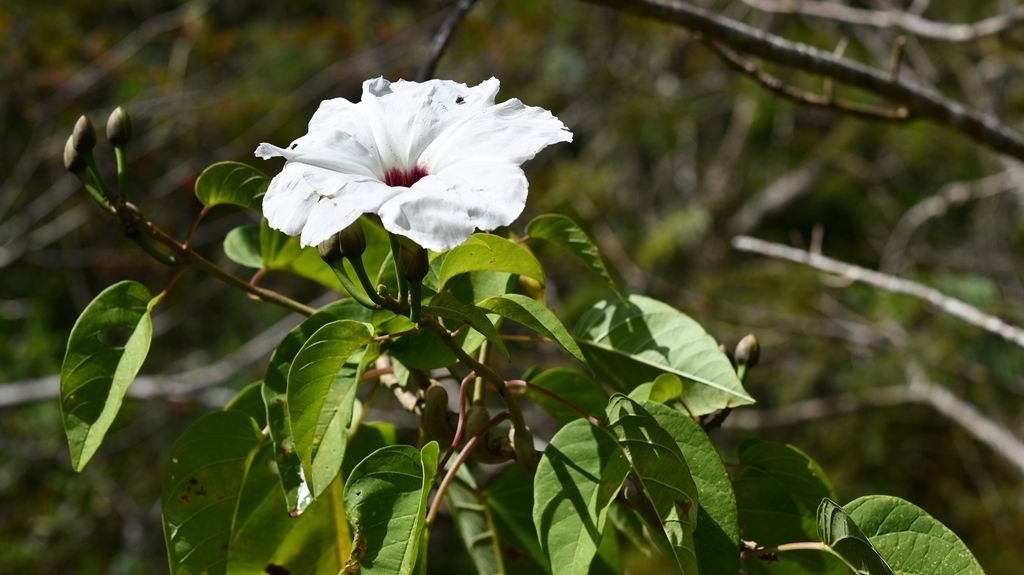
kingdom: Plantae
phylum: Tracheophyta
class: Magnoliopsida
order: Solanales
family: Convolvulaceae
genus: Ipomoea
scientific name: Ipomoea pauciflora
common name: Tree morningglory
